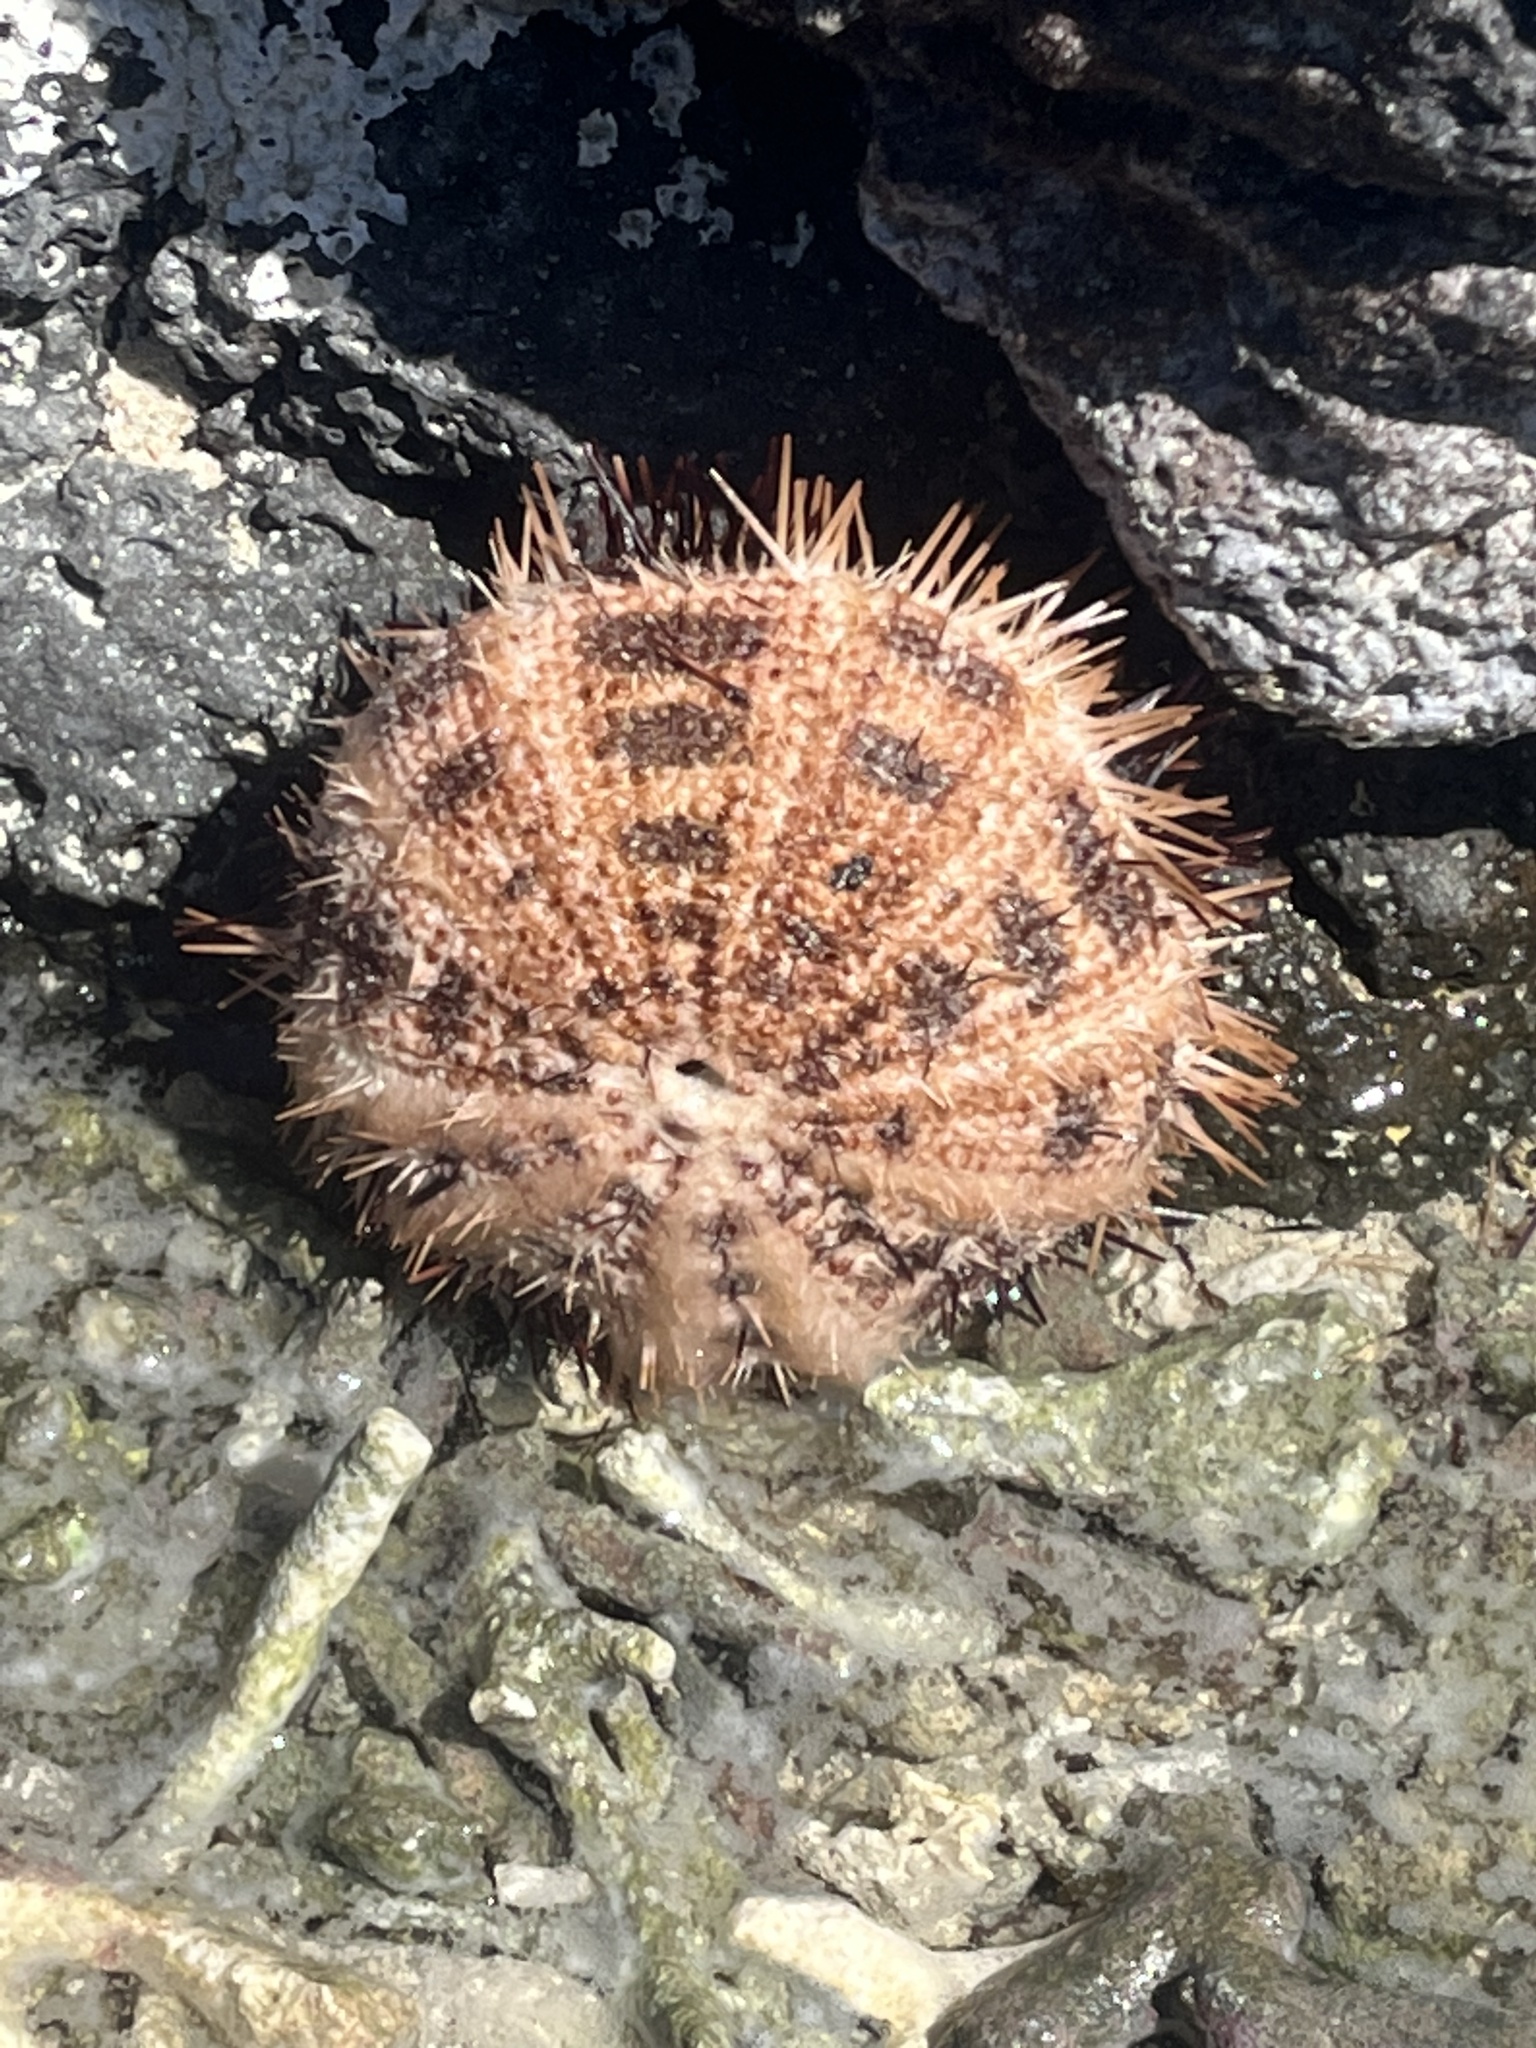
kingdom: Animalia
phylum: Echinodermata
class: Echinoidea
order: Camarodonta
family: Toxopneustidae
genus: Pseudoboletia
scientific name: Pseudoboletia maculata
